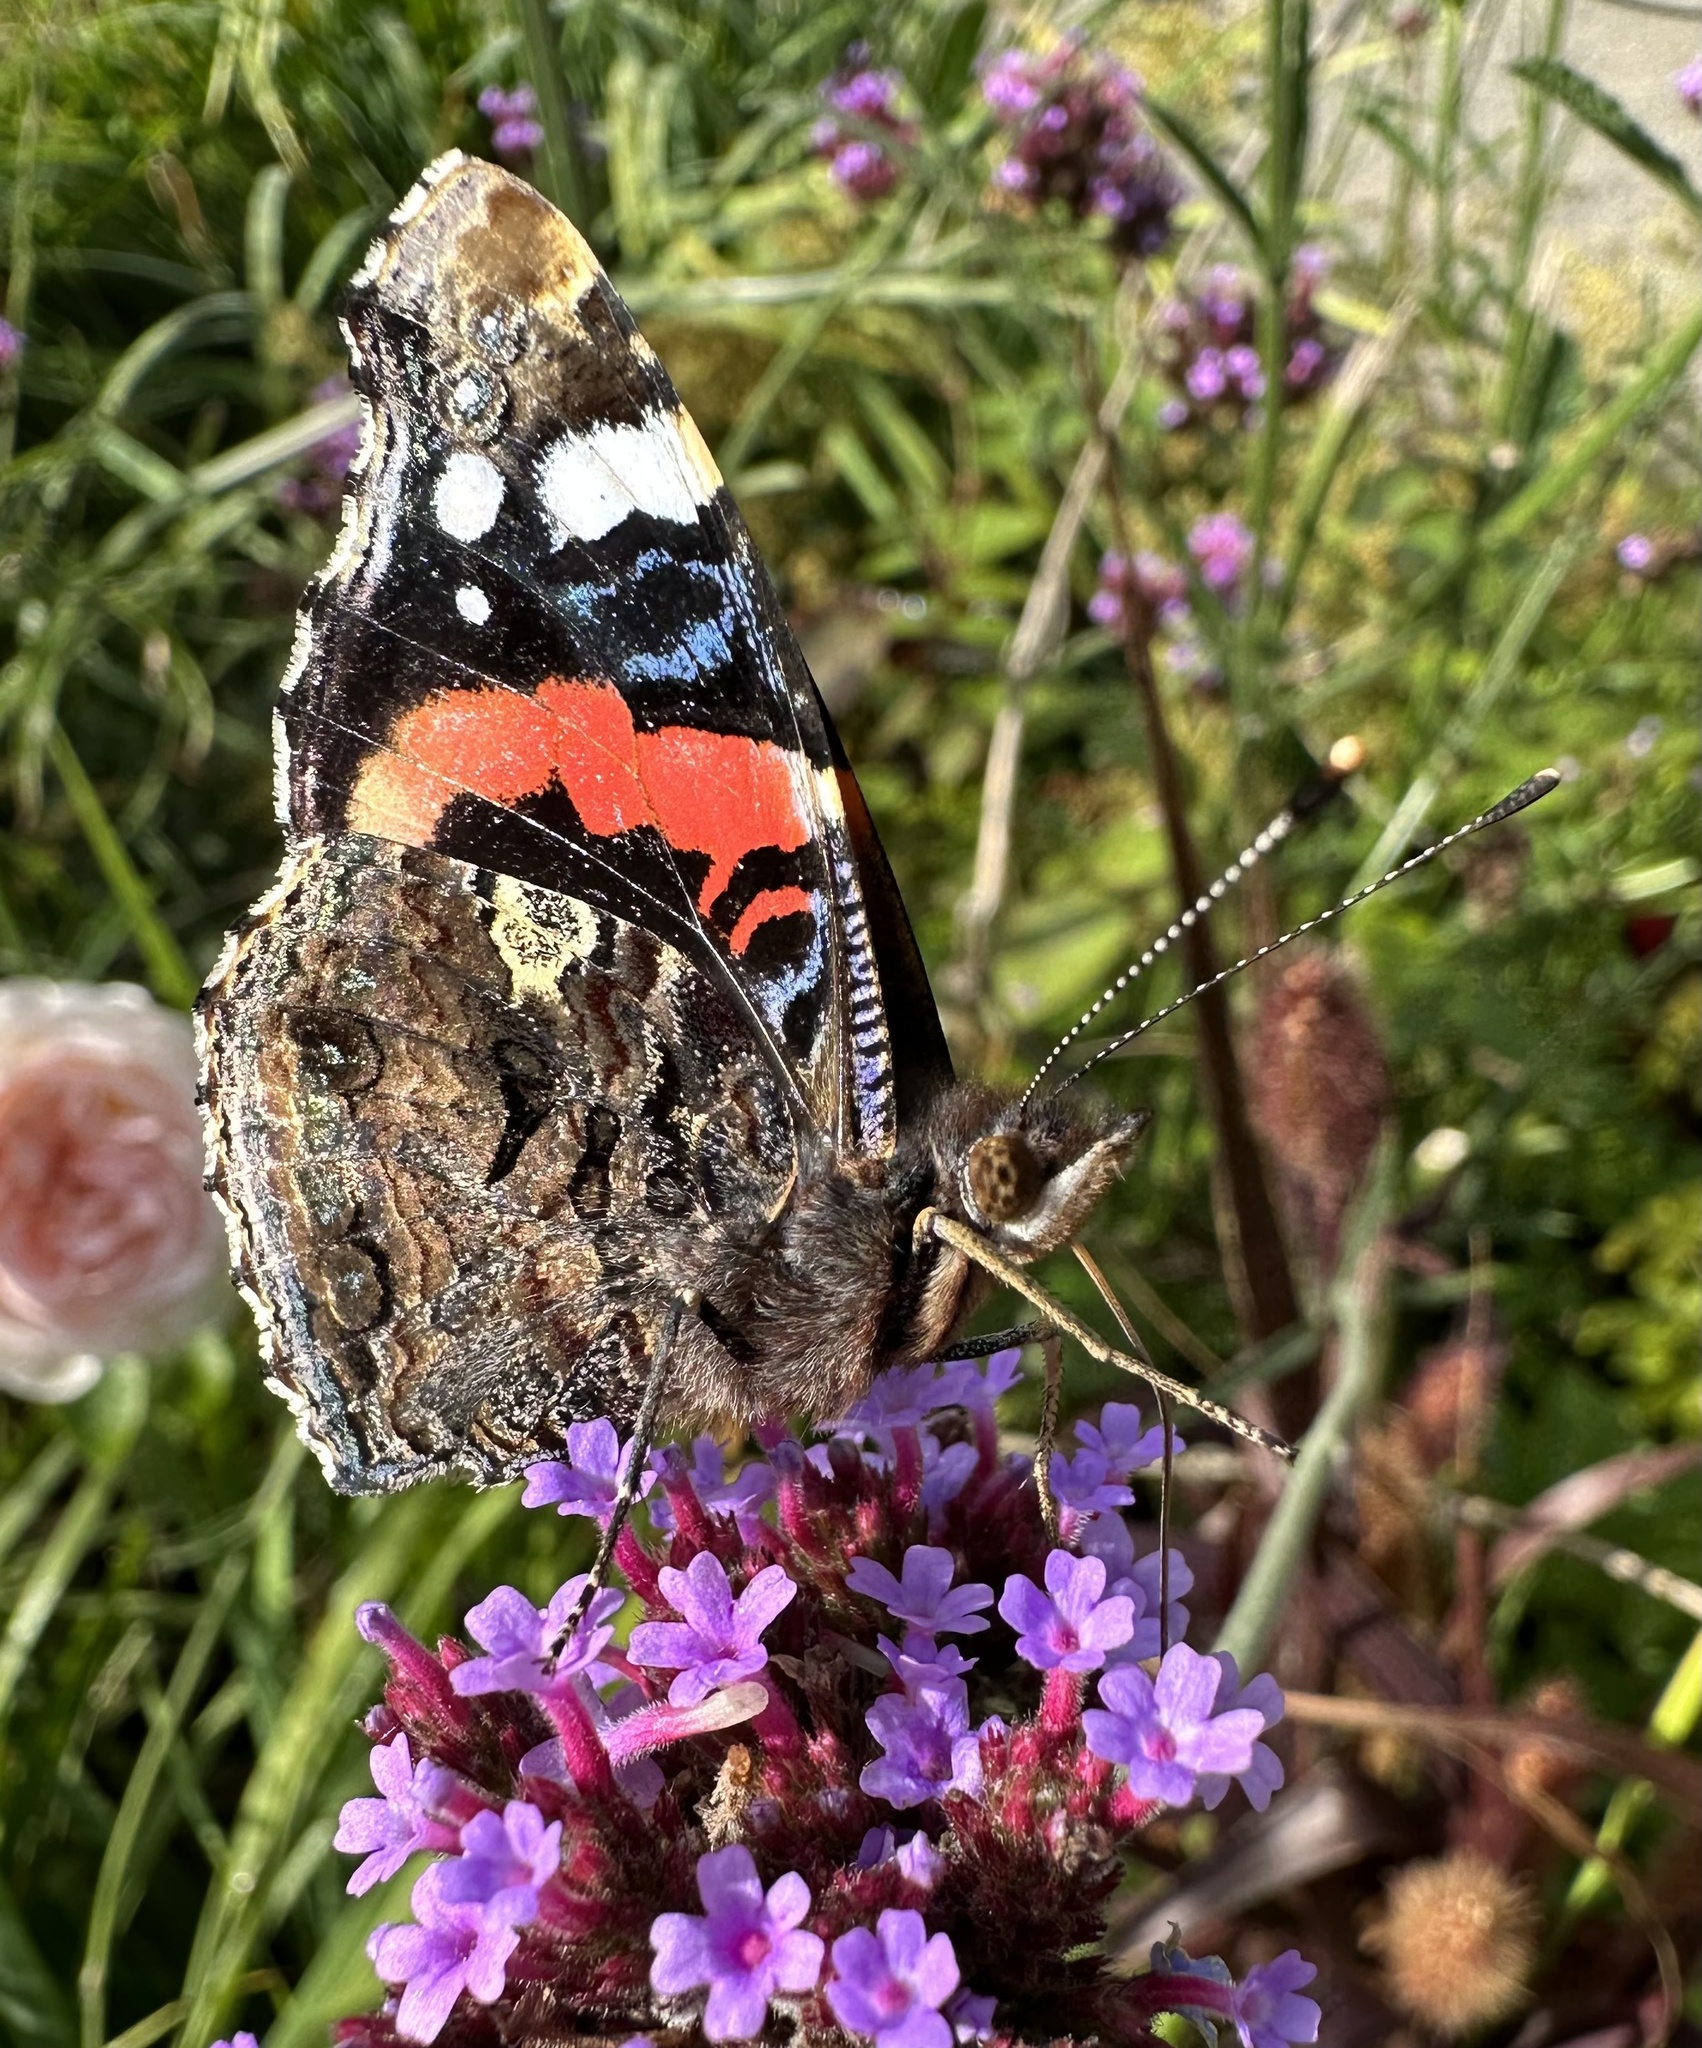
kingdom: Animalia
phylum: Arthropoda
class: Insecta
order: Lepidoptera
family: Nymphalidae
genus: Vanessa
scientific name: Vanessa atalanta
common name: Red admiral
